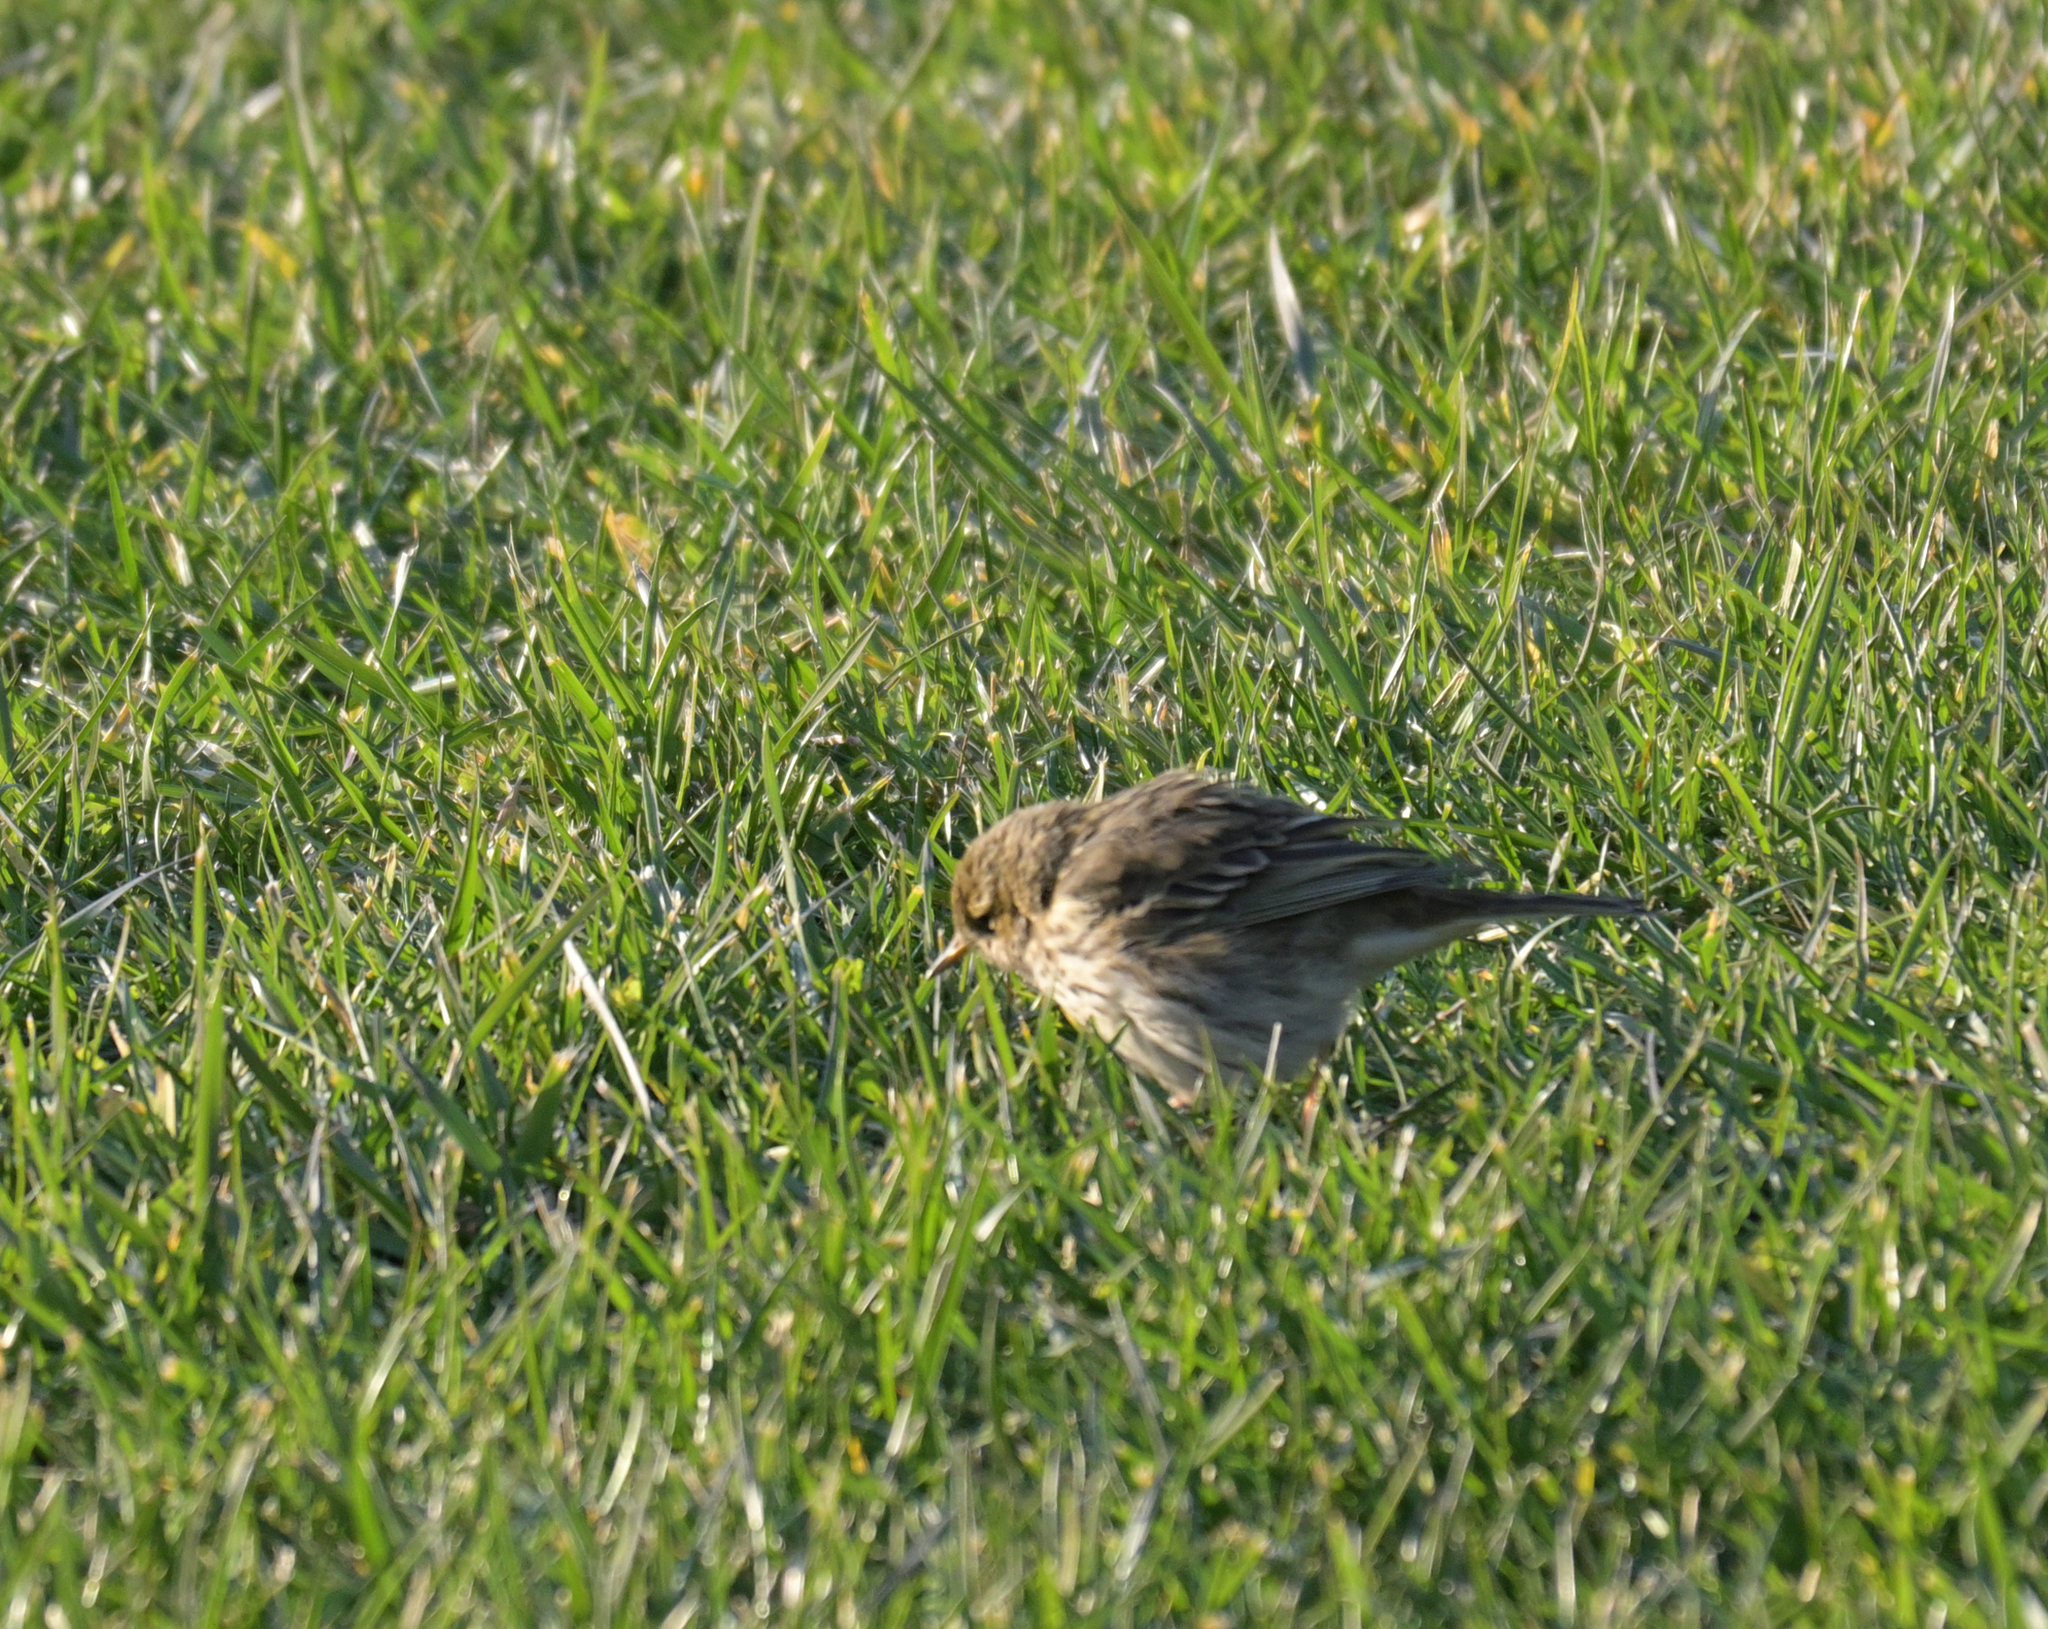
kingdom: Animalia
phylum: Chordata
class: Aves
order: Passeriformes
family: Motacillidae
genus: Anthus
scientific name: Anthus pratensis
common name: Meadow pipit
